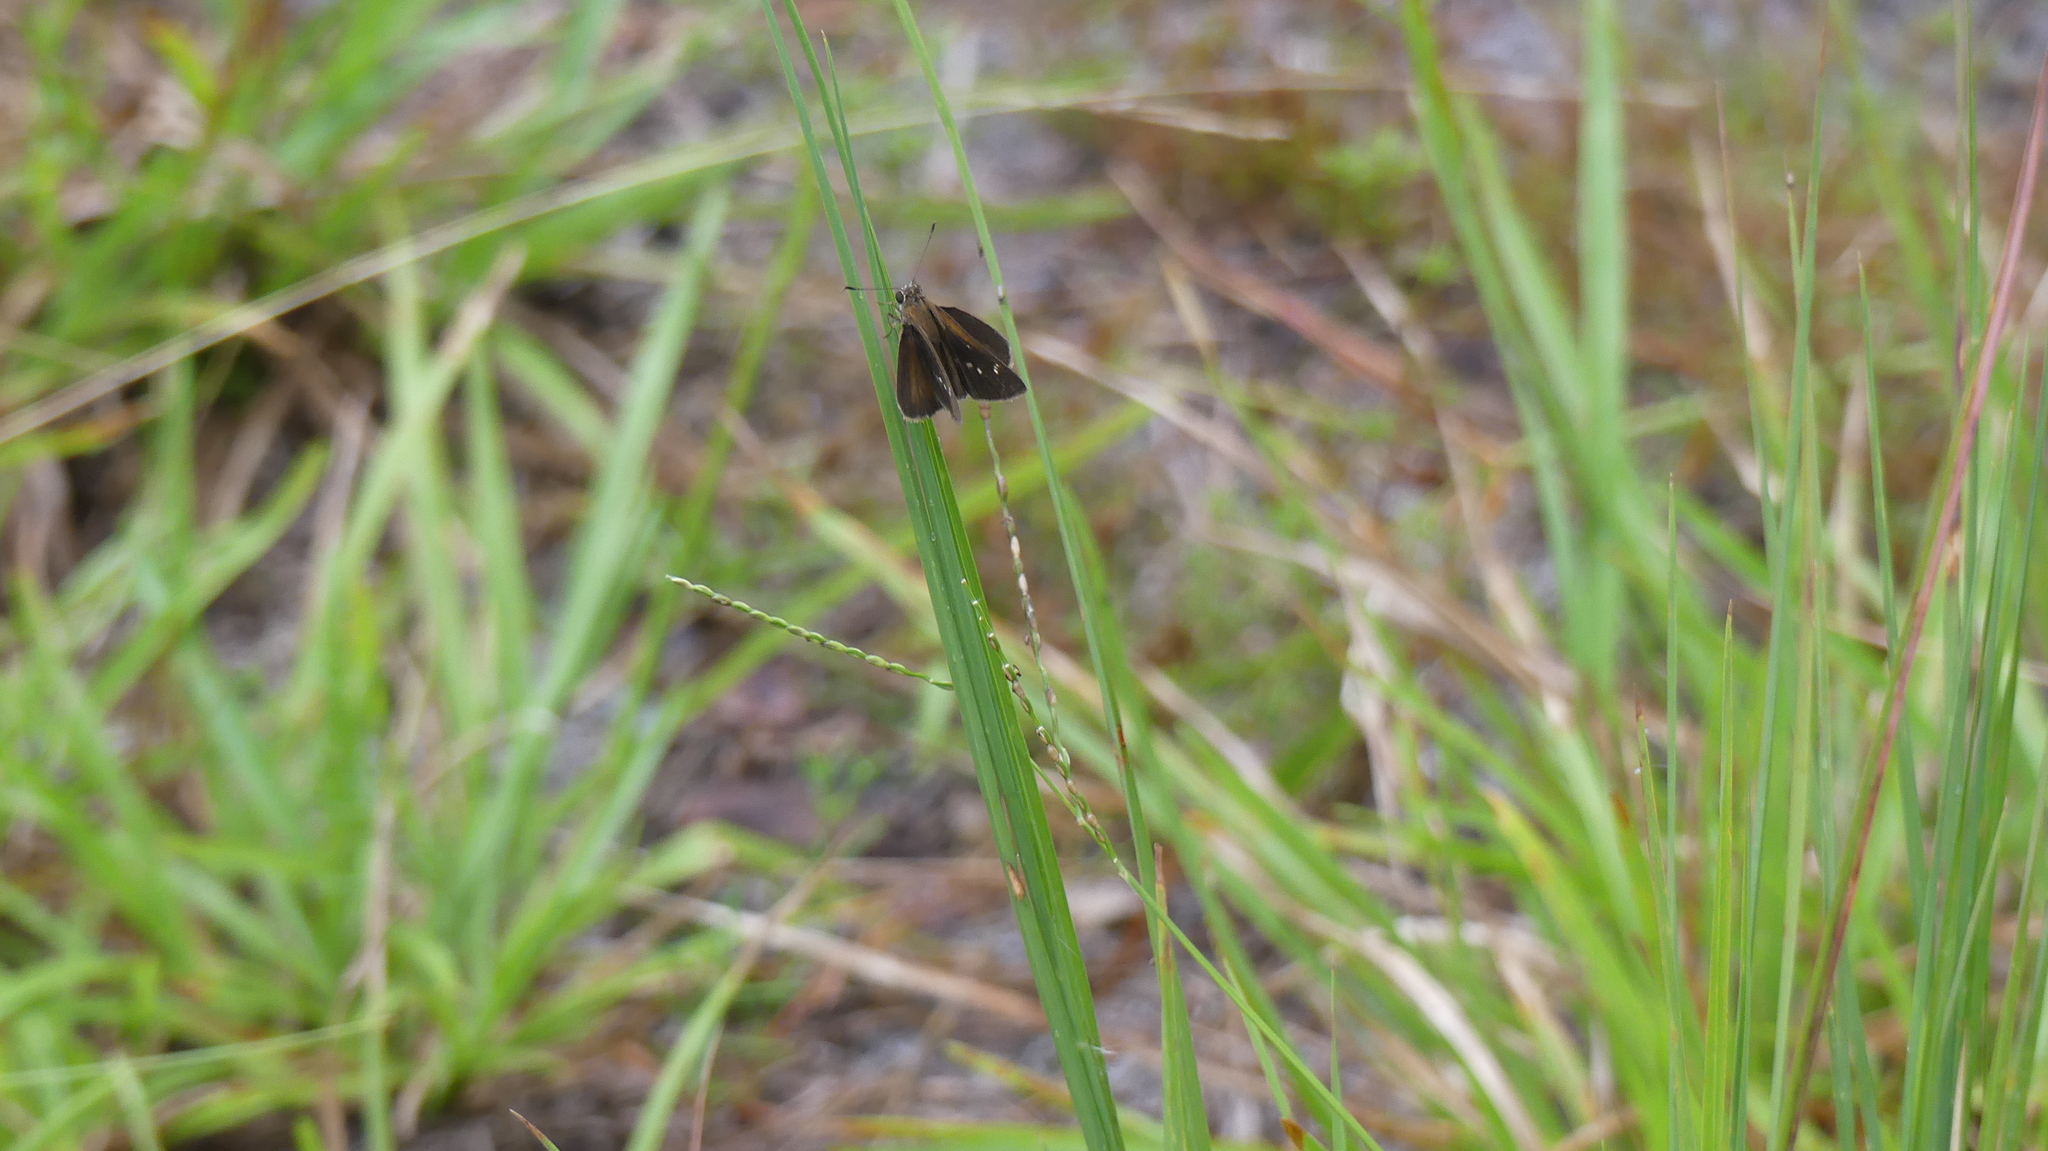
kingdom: Animalia
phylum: Arthropoda
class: Insecta
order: Lepidoptera
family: Hesperiidae
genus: Cymaenes
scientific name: Cymaenes tripunctus
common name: Dingy dotted skipper
